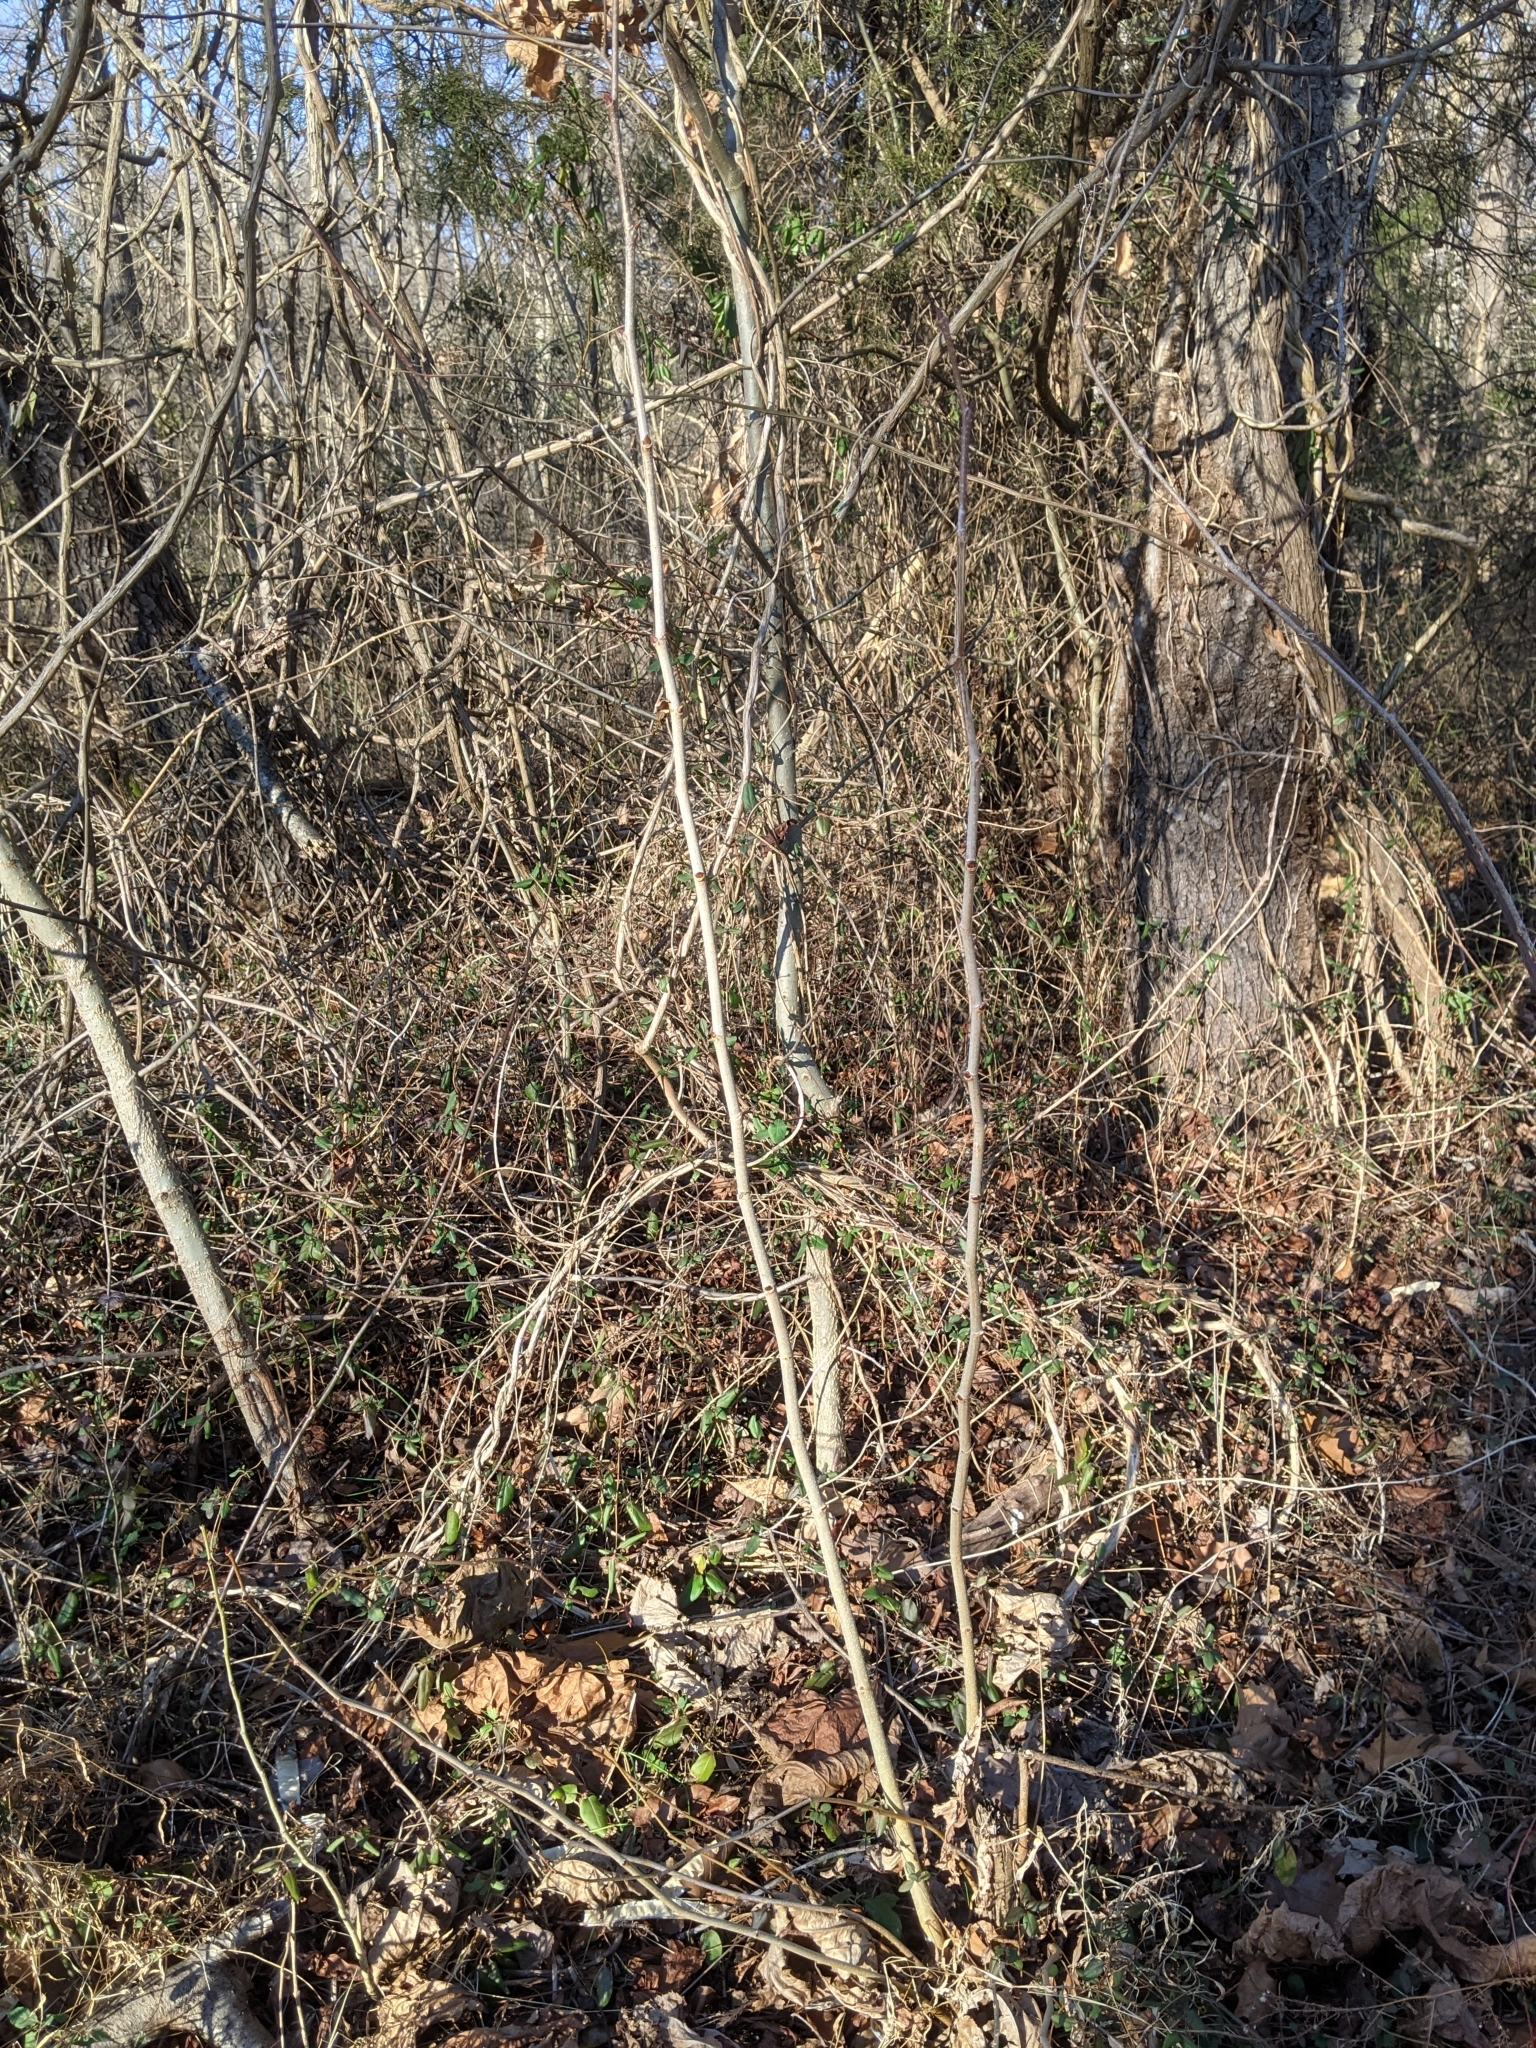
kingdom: Plantae
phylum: Tracheophyta
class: Magnoliopsida
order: Proteales
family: Platanaceae
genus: Platanus
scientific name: Platanus occidentalis
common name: American sycamore
